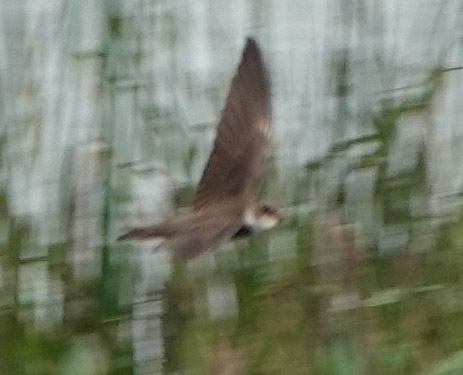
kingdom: Animalia
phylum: Chordata
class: Aves
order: Passeriformes
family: Hirundinidae
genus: Riparia
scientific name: Riparia riparia
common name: Sand martin
